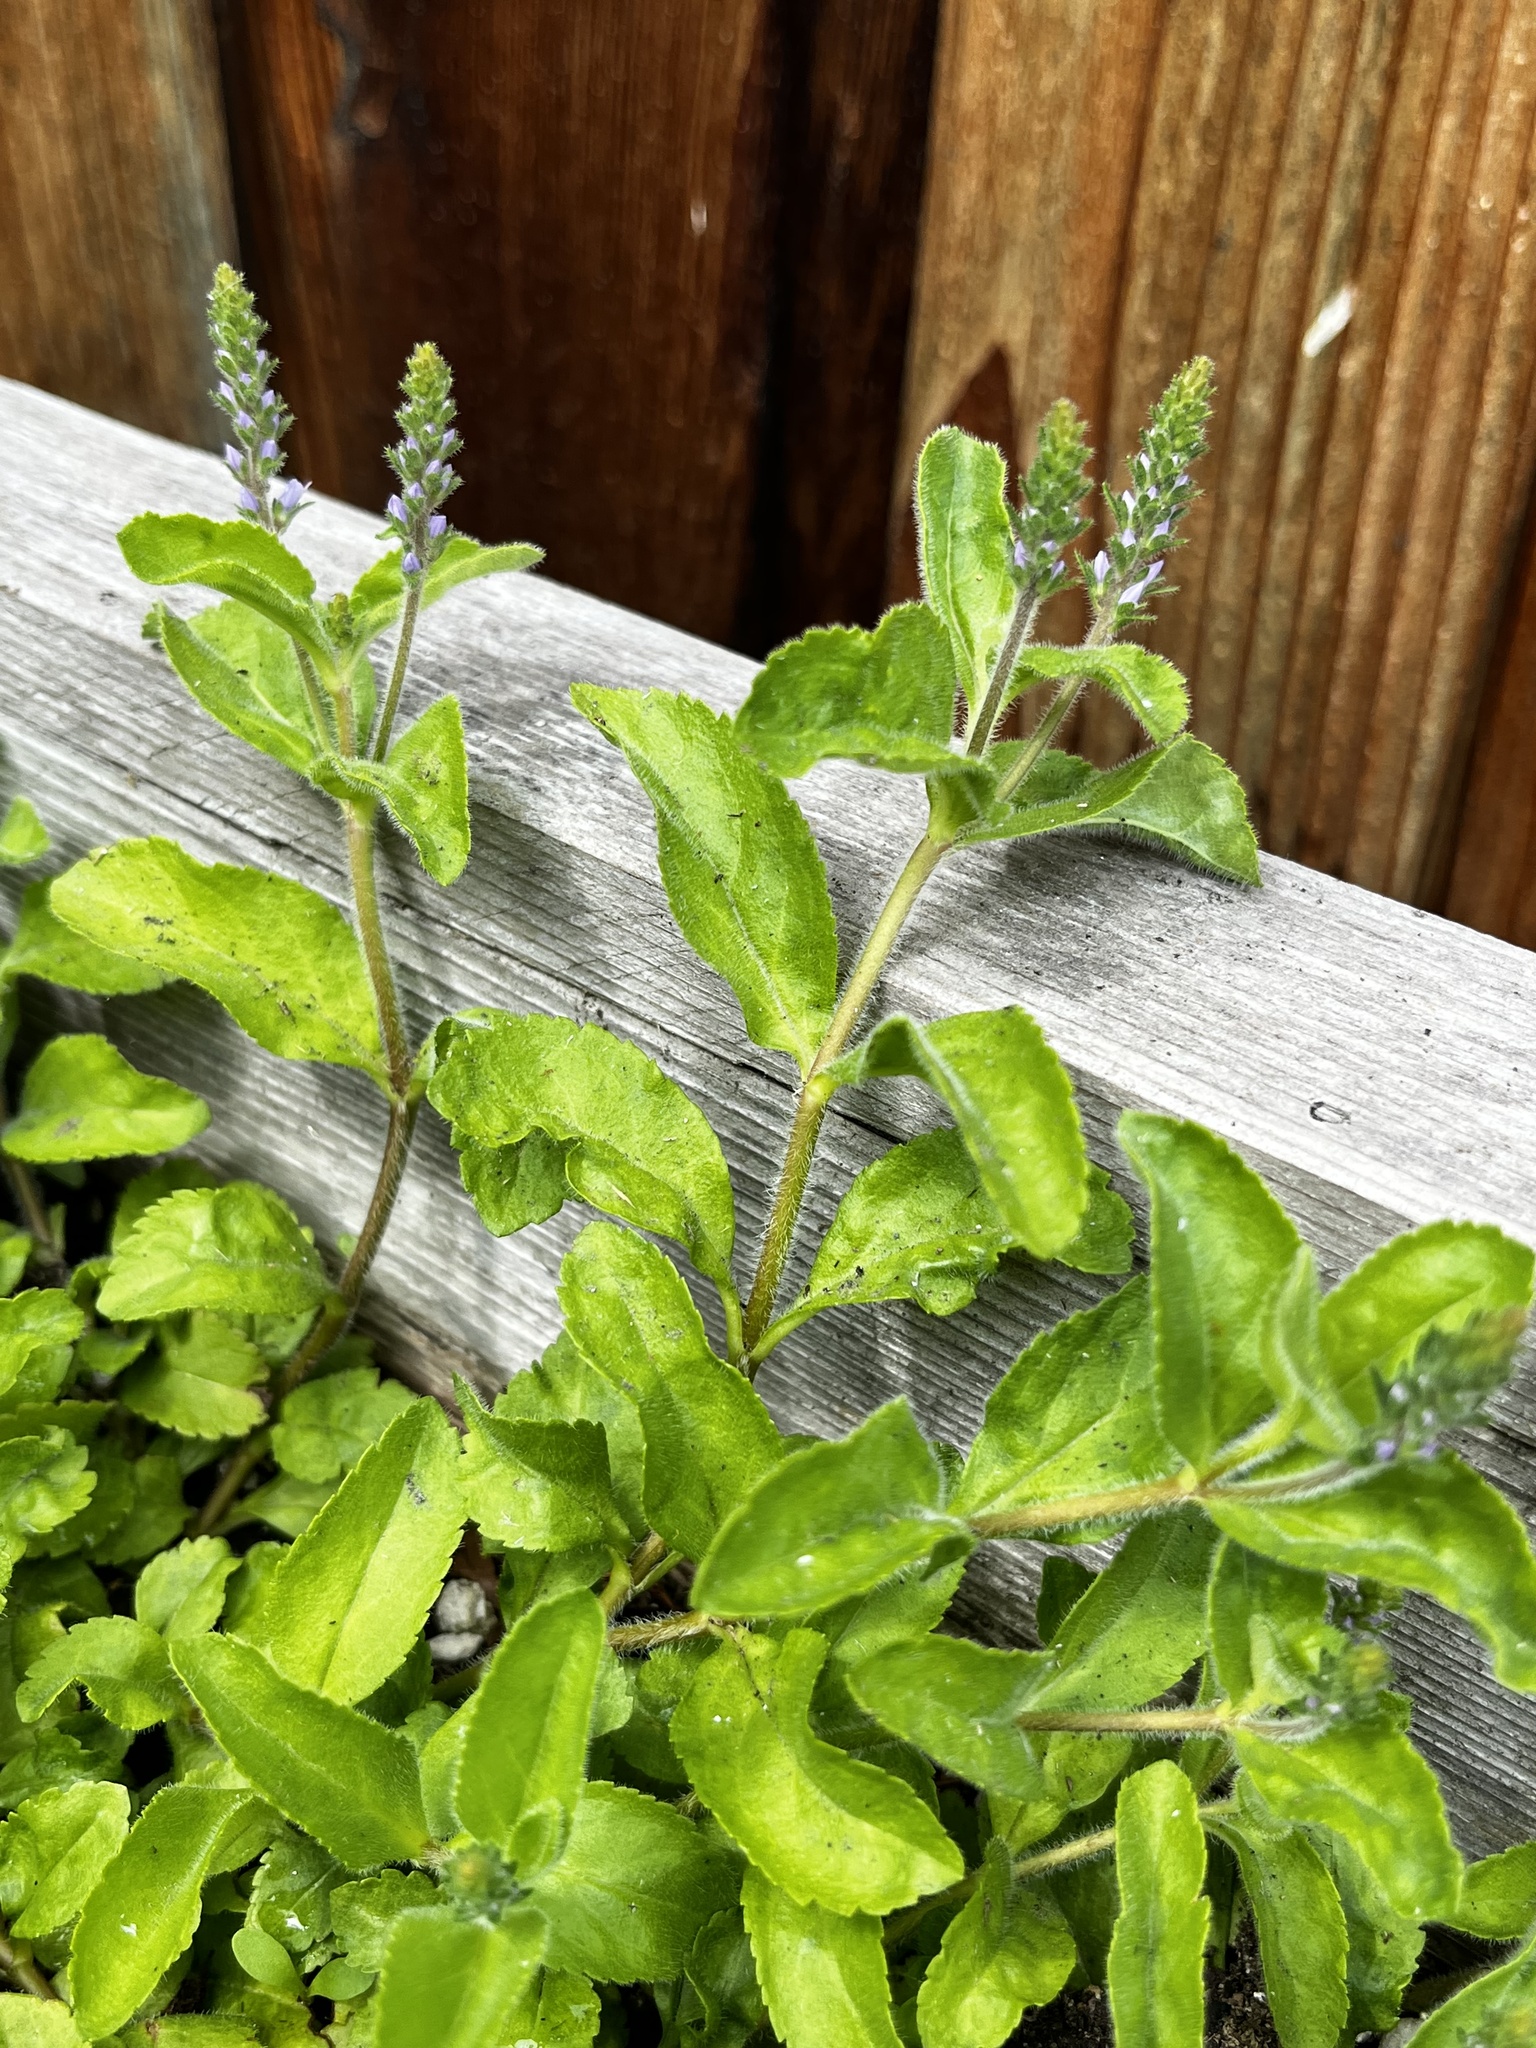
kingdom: Plantae
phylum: Tracheophyta
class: Magnoliopsida
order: Lamiales
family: Plantaginaceae
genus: Veronica
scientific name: Veronica officinalis
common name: Common speedwell
